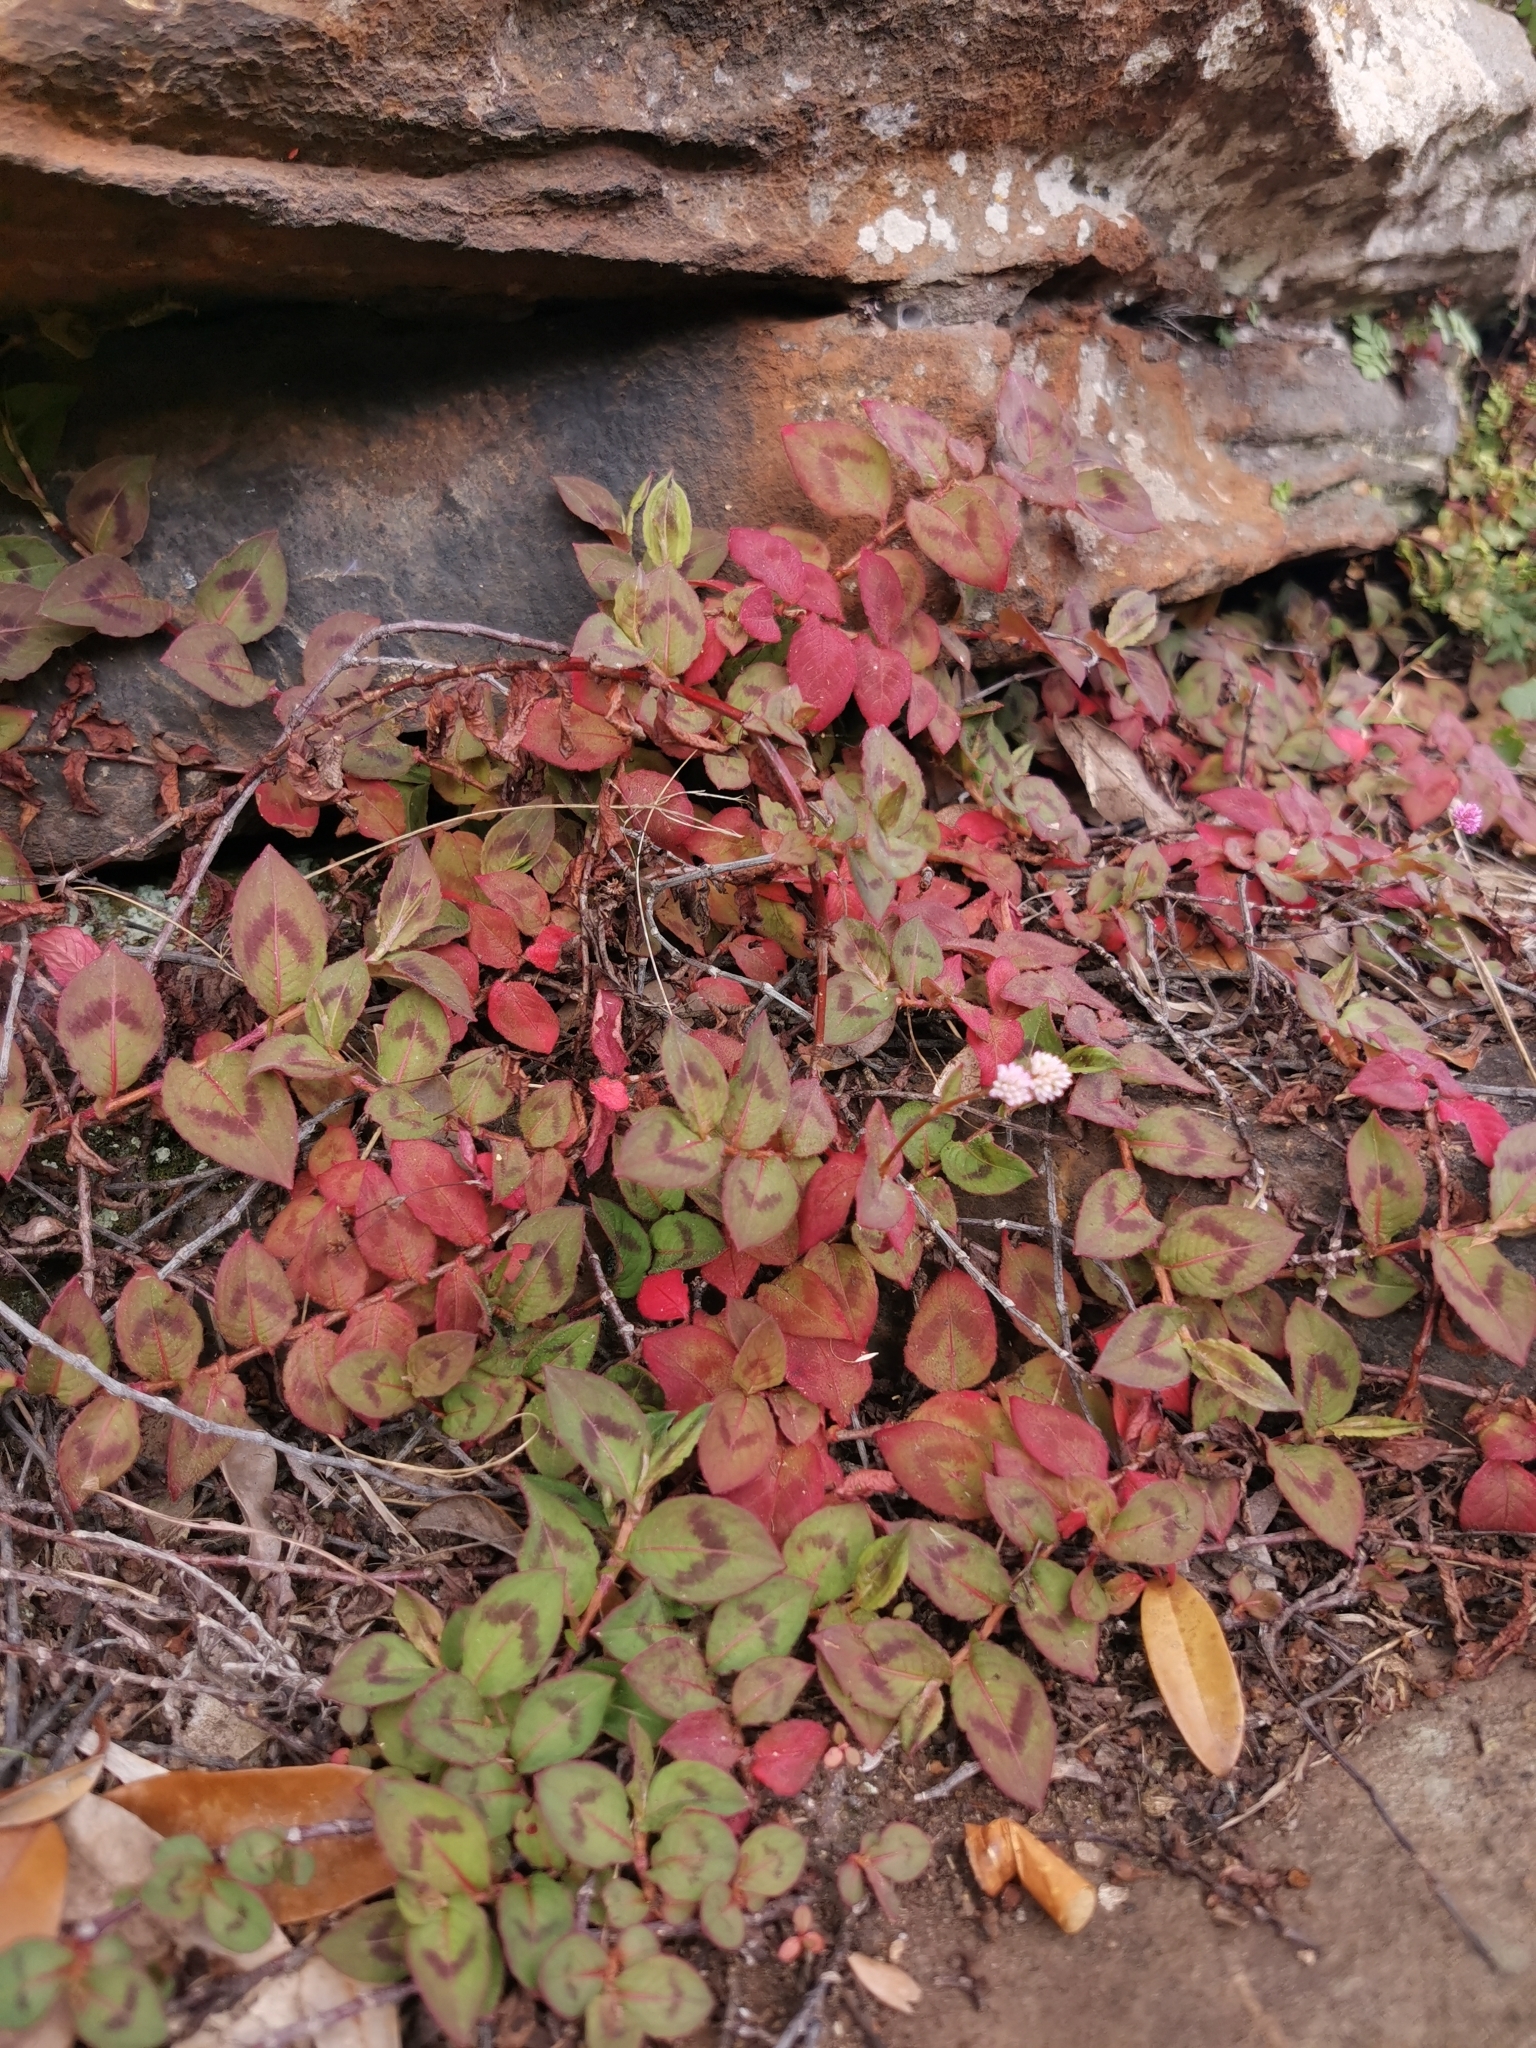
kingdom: Plantae
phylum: Tracheophyta
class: Magnoliopsida
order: Caryophyllales
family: Polygonaceae
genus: Persicaria
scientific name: Persicaria capitata
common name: Pinkhead smartweed
